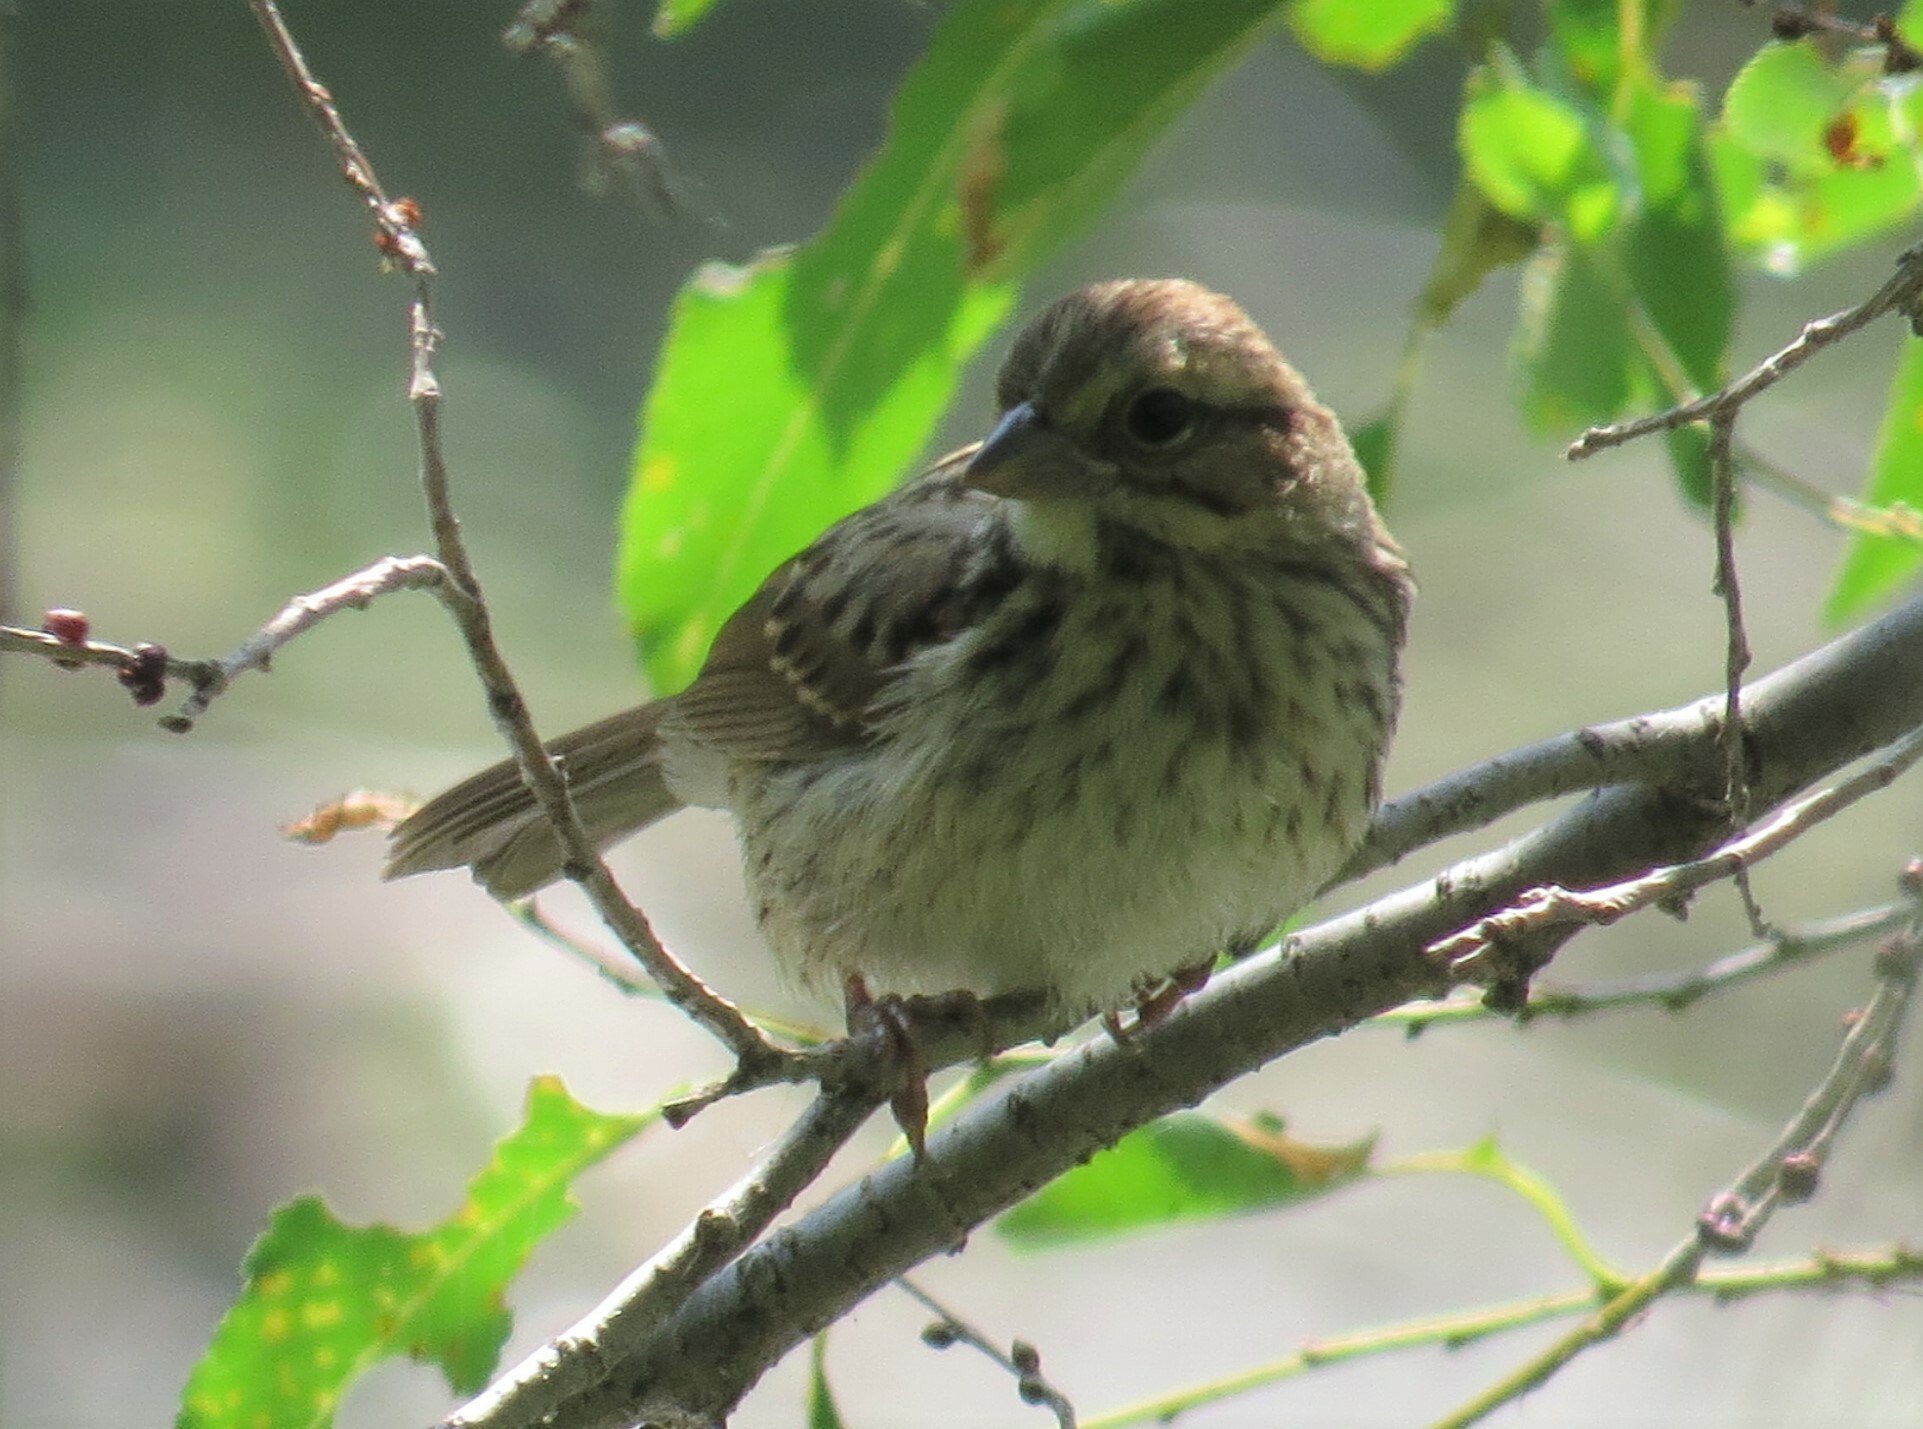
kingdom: Animalia
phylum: Chordata
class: Aves
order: Passeriformes
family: Passerellidae
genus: Melospiza
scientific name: Melospiza melodia
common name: Song sparrow
